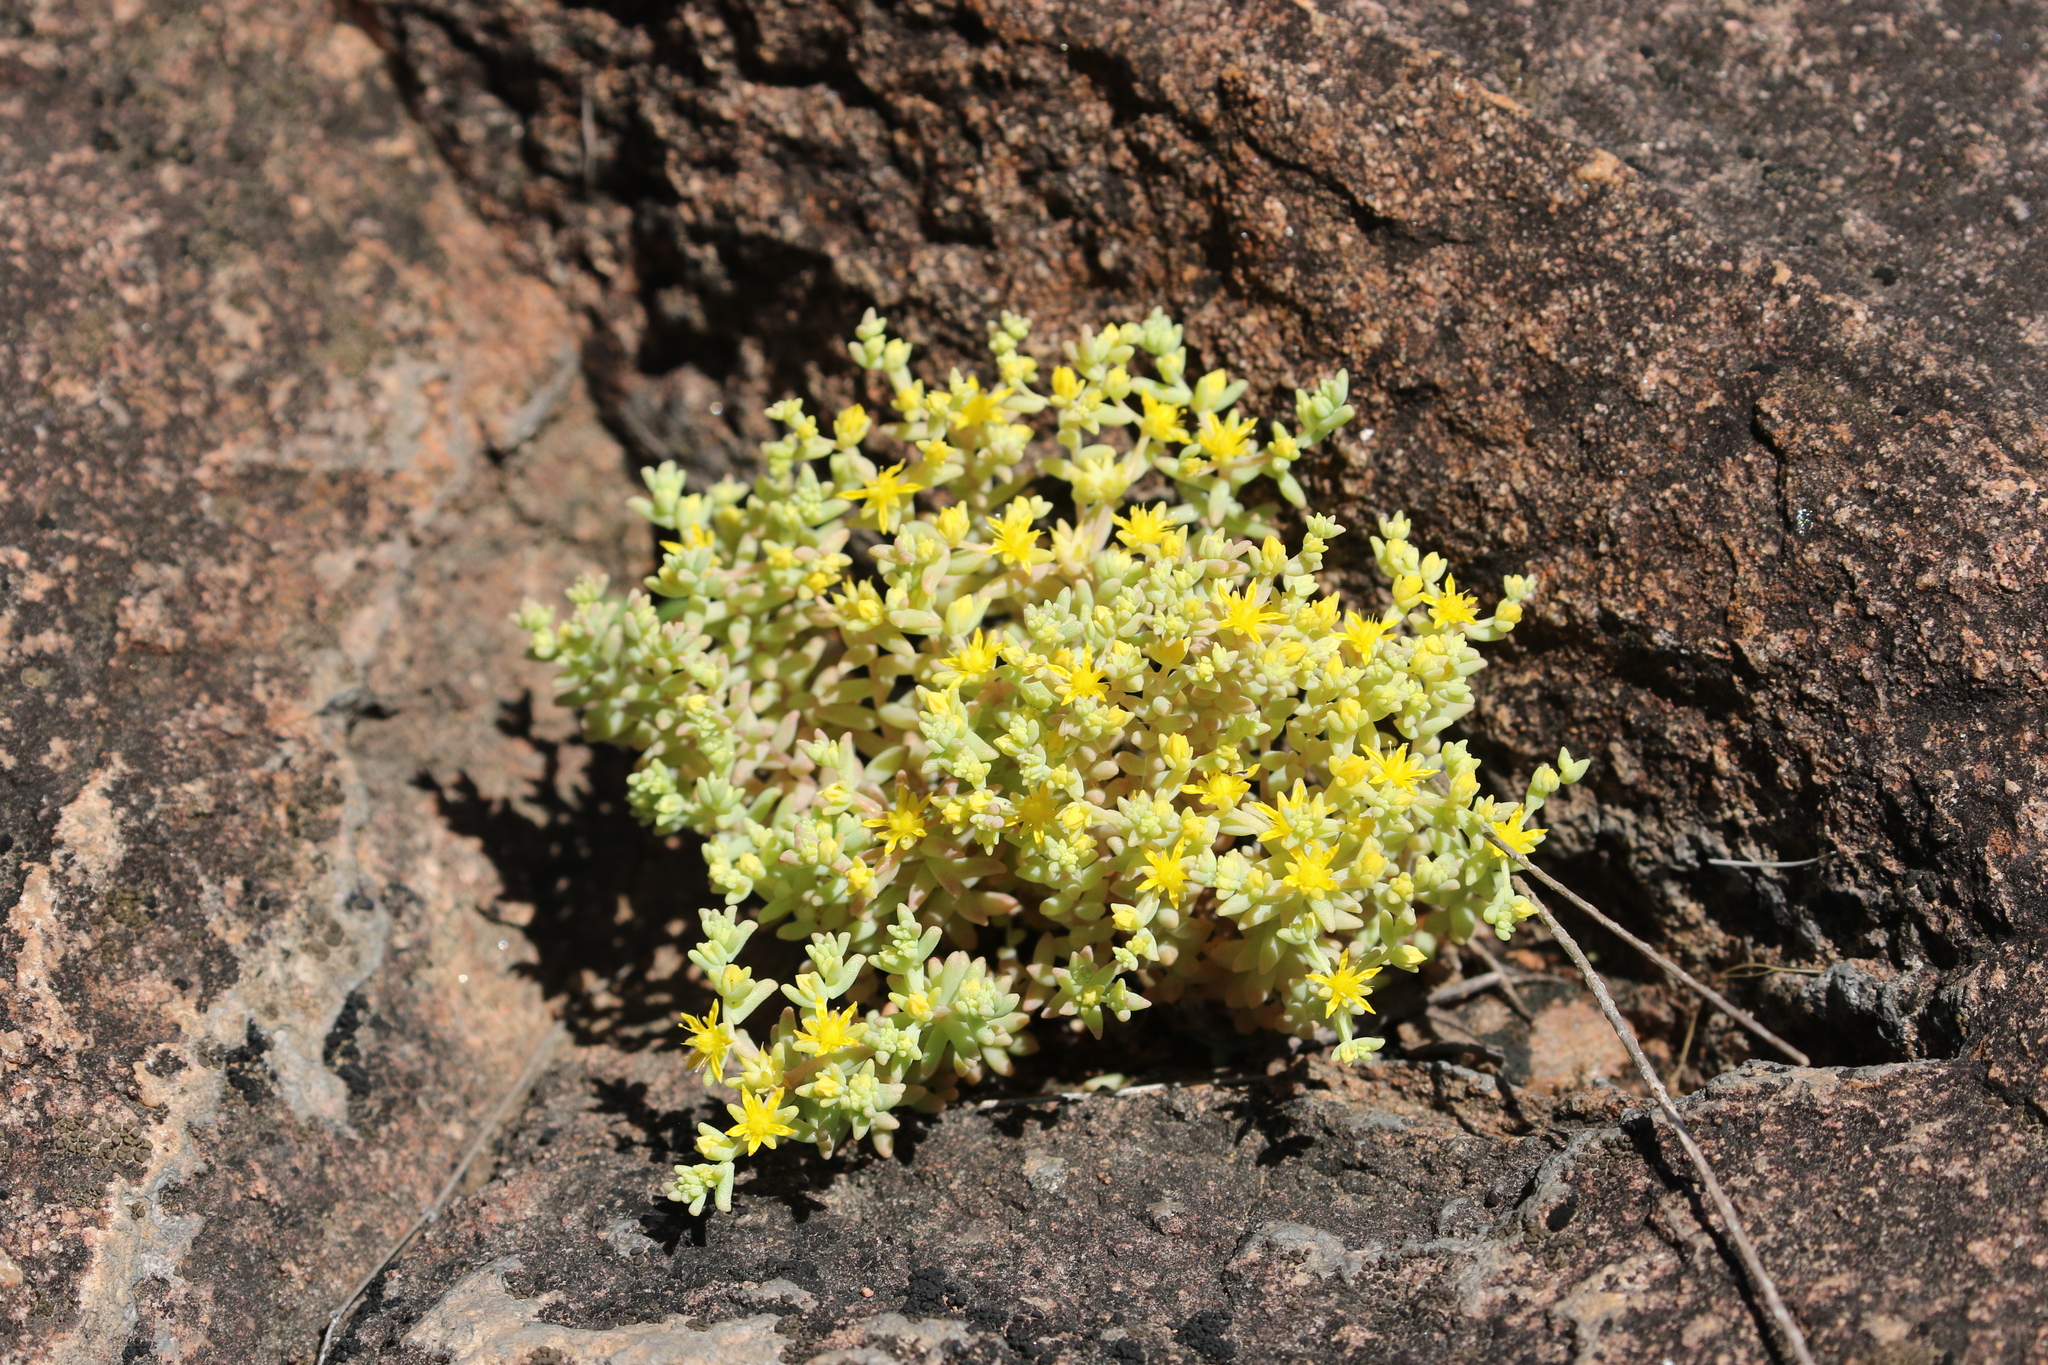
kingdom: Plantae
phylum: Tracheophyta
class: Magnoliopsida
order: Saxifragales
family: Crassulaceae
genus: Sedum
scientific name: Sedum nuttallii
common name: Yellow stonecrop
